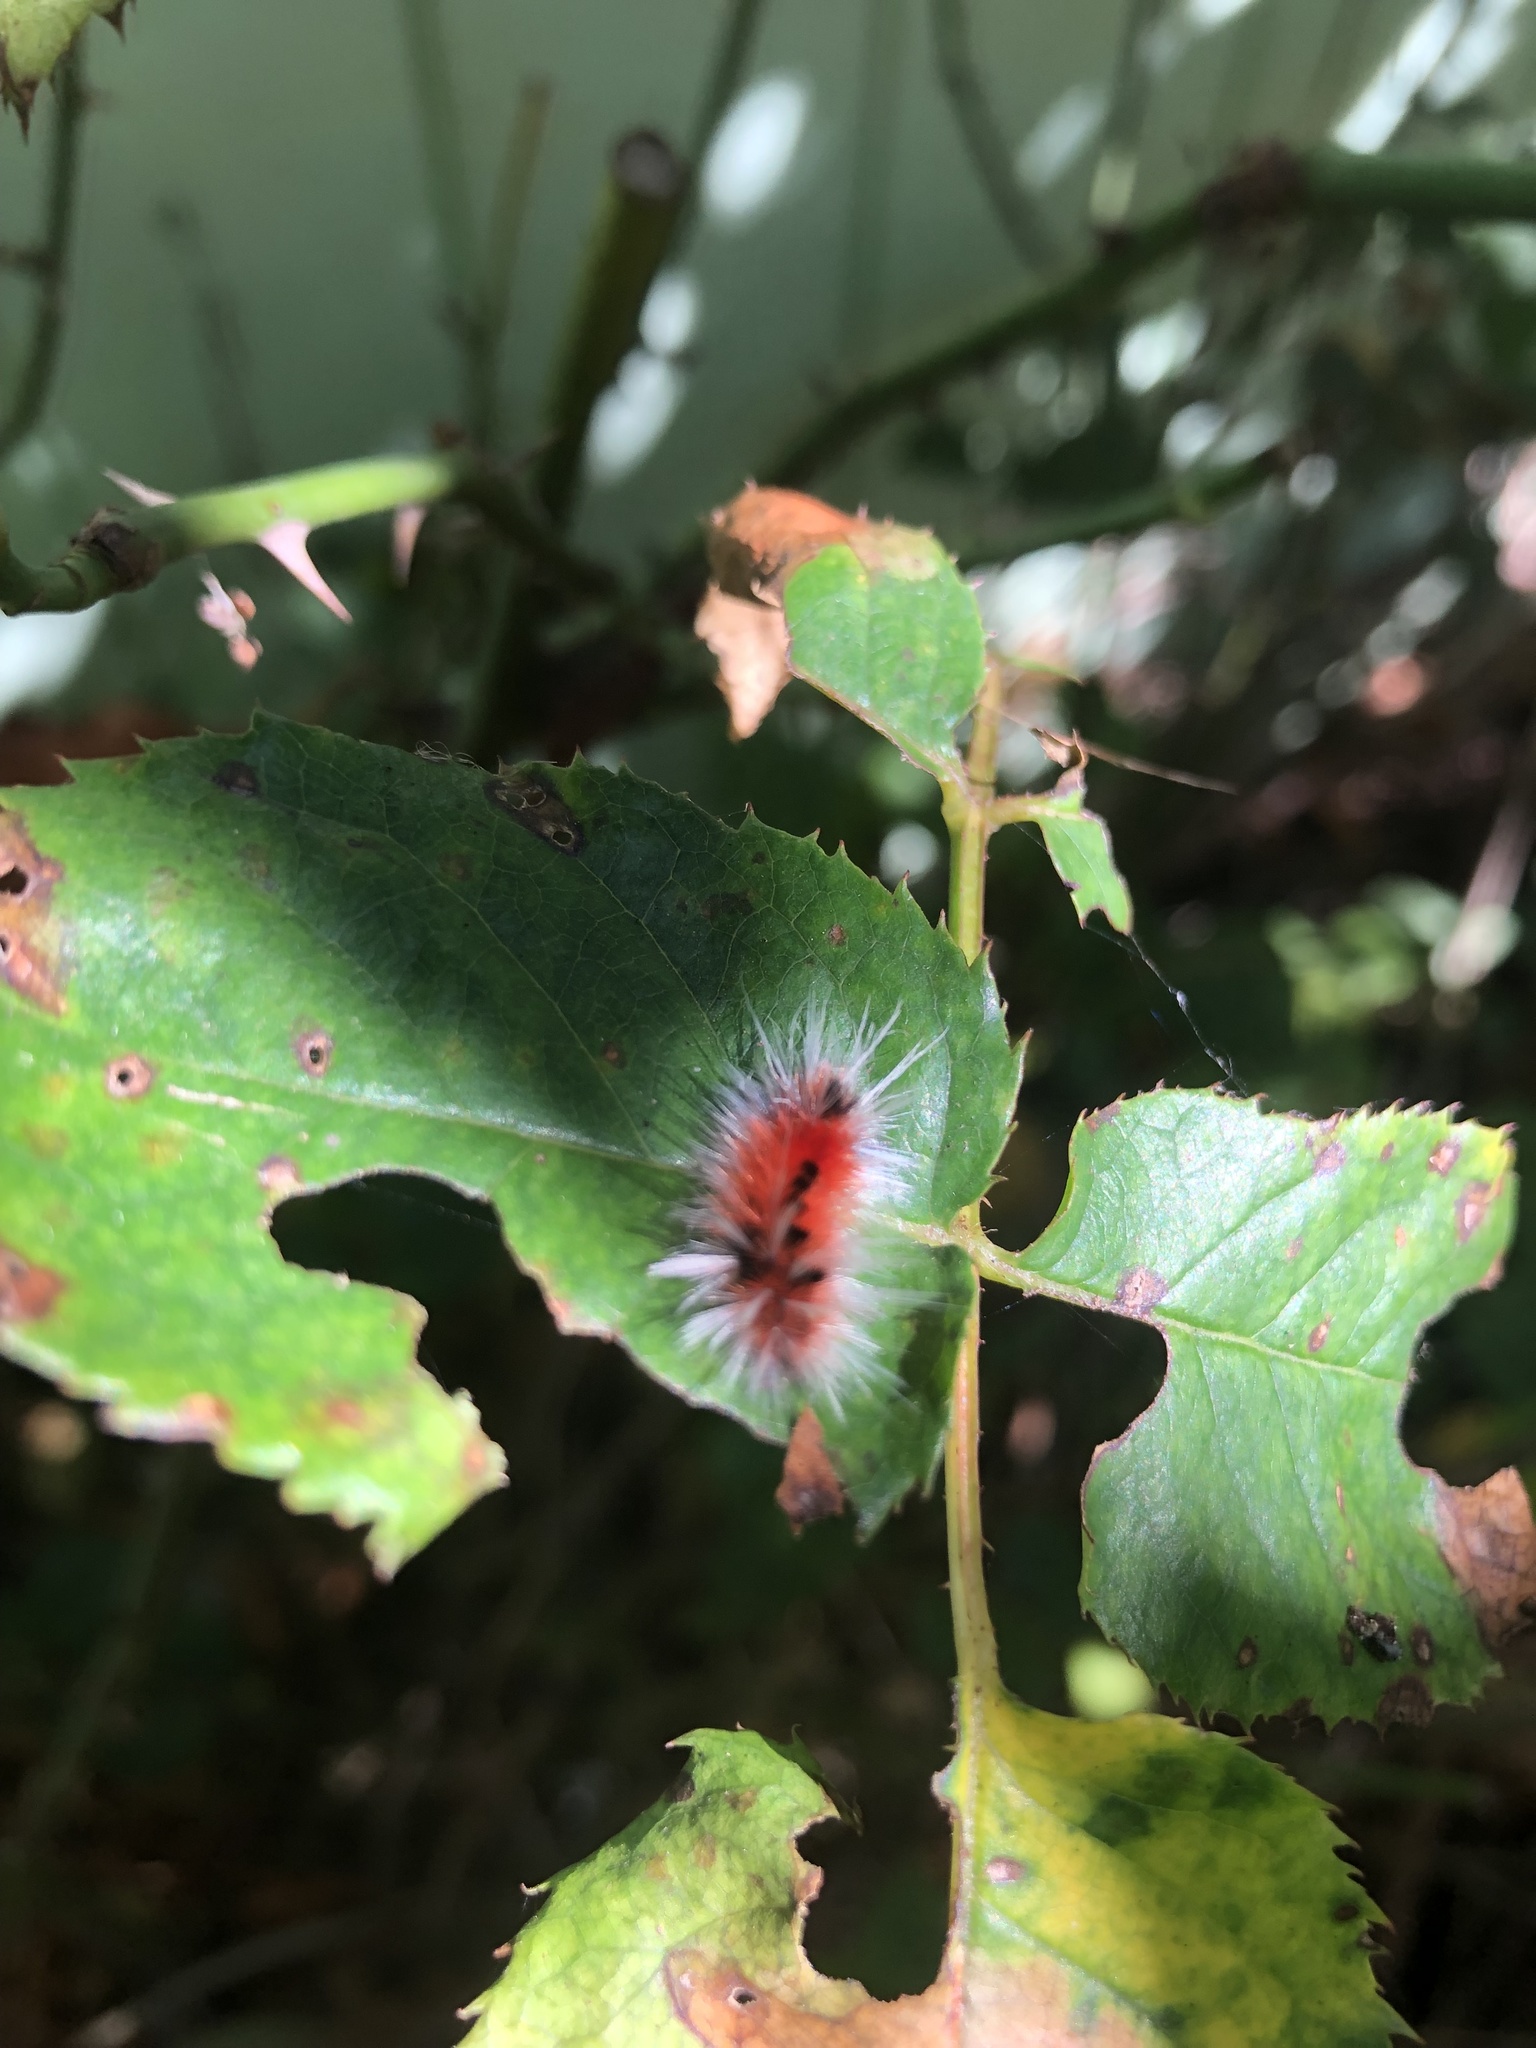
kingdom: Animalia
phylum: Arthropoda
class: Insecta
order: Lepidoptera
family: Erebidae
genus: Lophocampa
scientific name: Lophocampa maculata
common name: Spotted tussock moth
